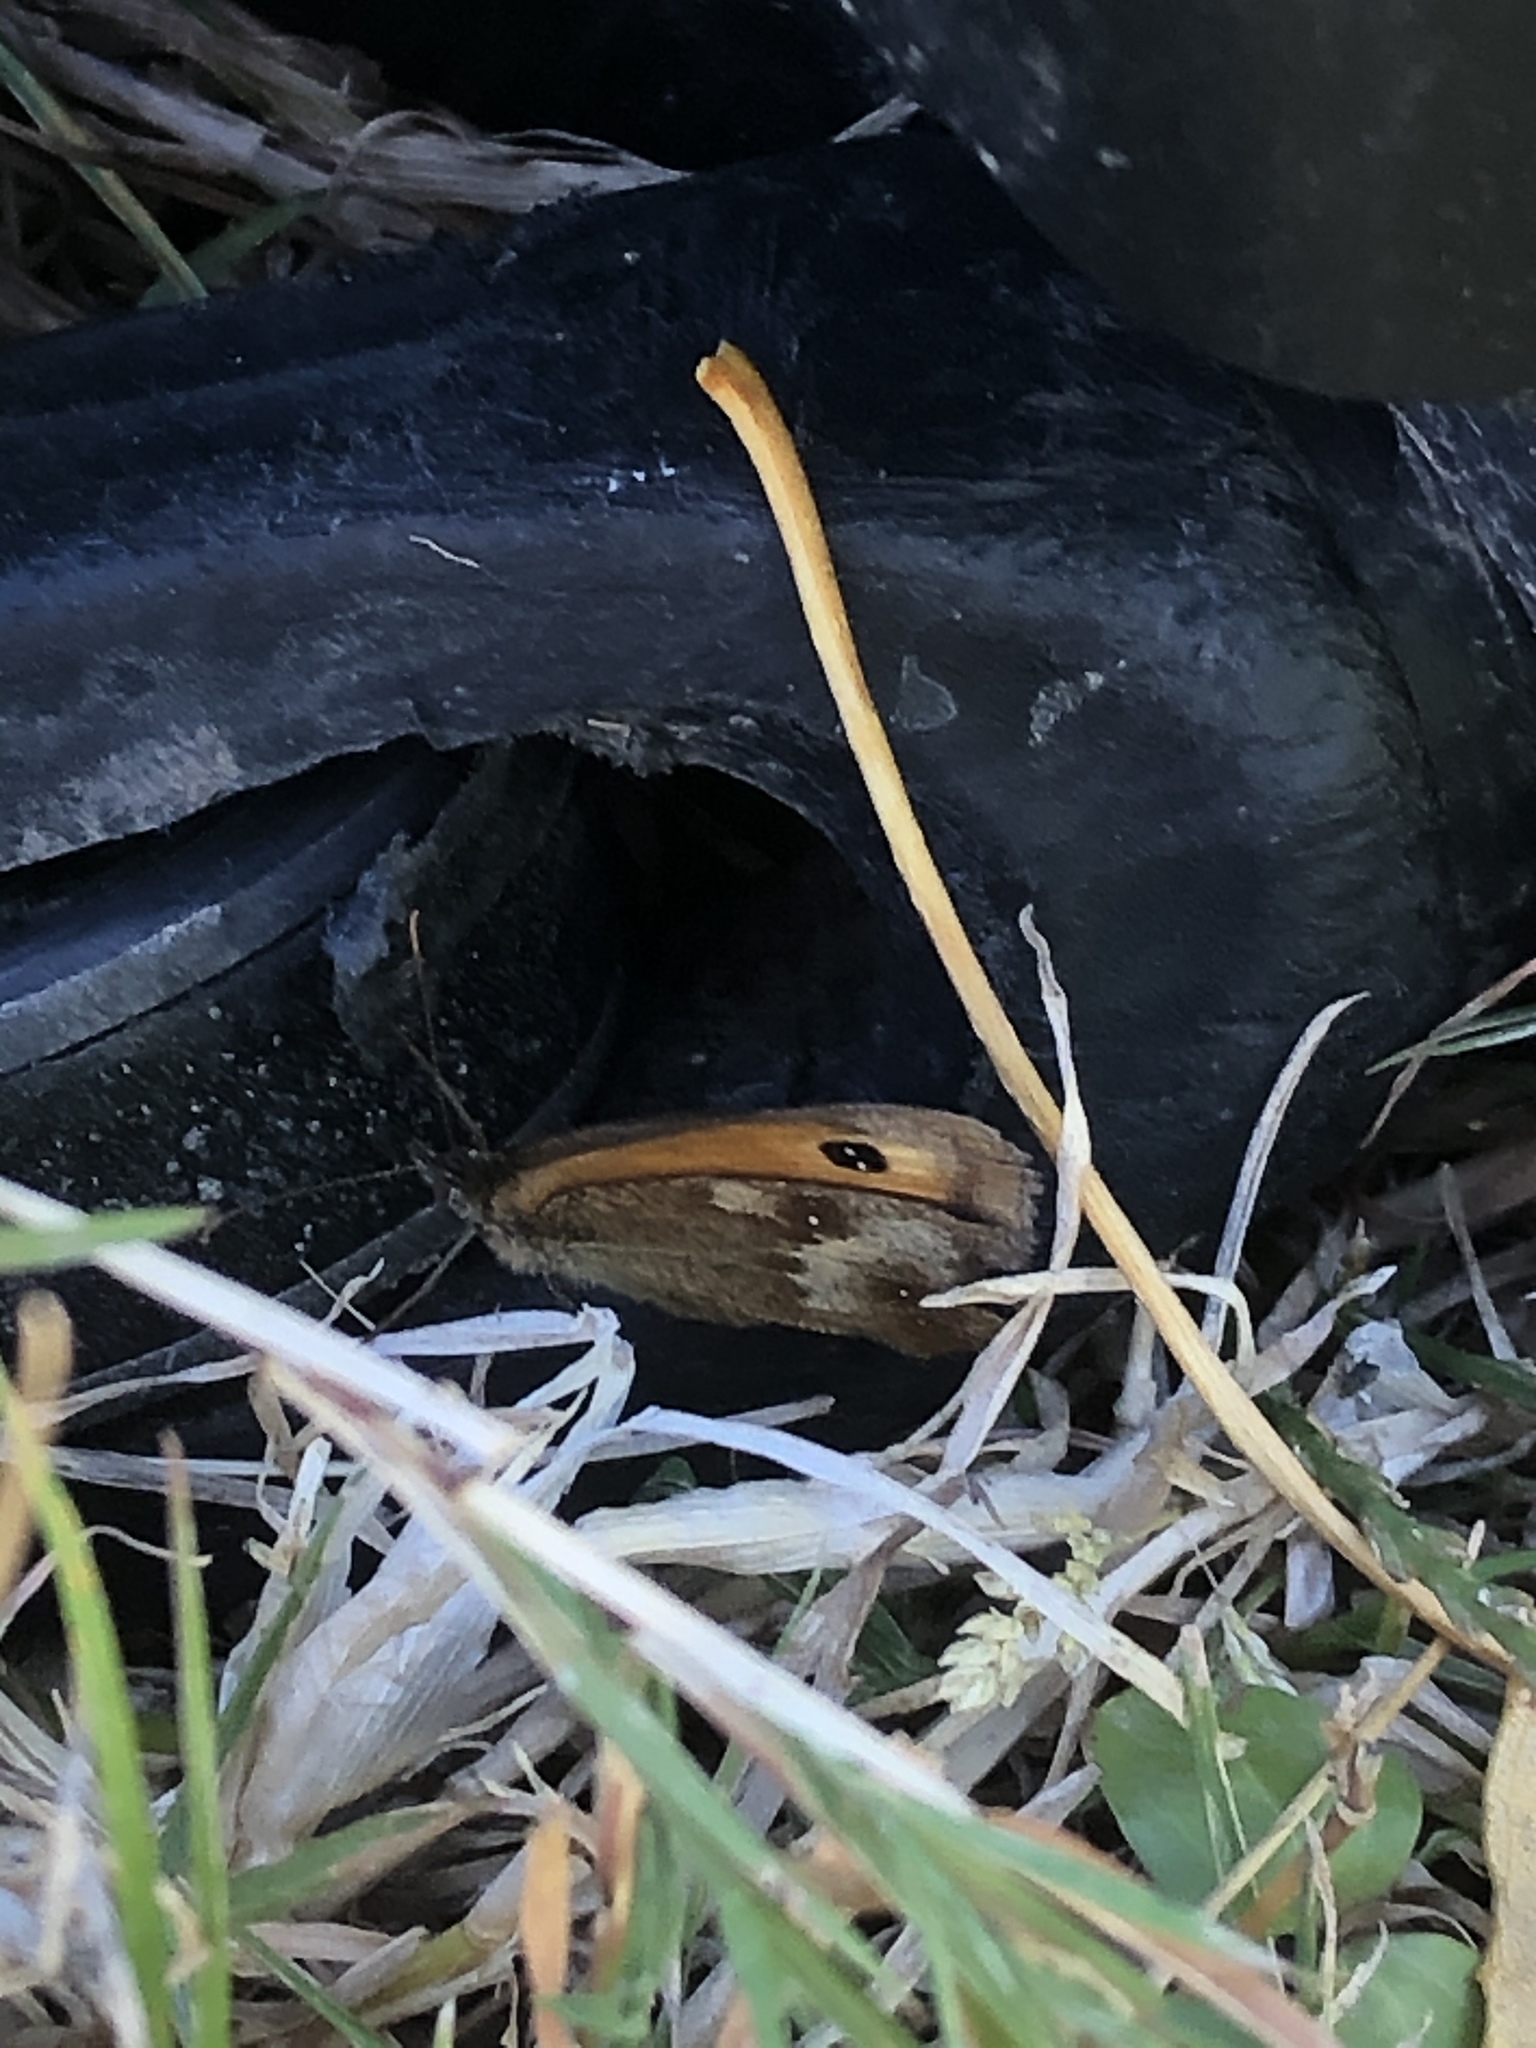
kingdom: Animalia
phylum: Arthropoda
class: Insecta
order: Lepidoptera
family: Nymphalidae
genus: Pyronia
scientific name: Pyronia tithonus
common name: Gatekeeper
